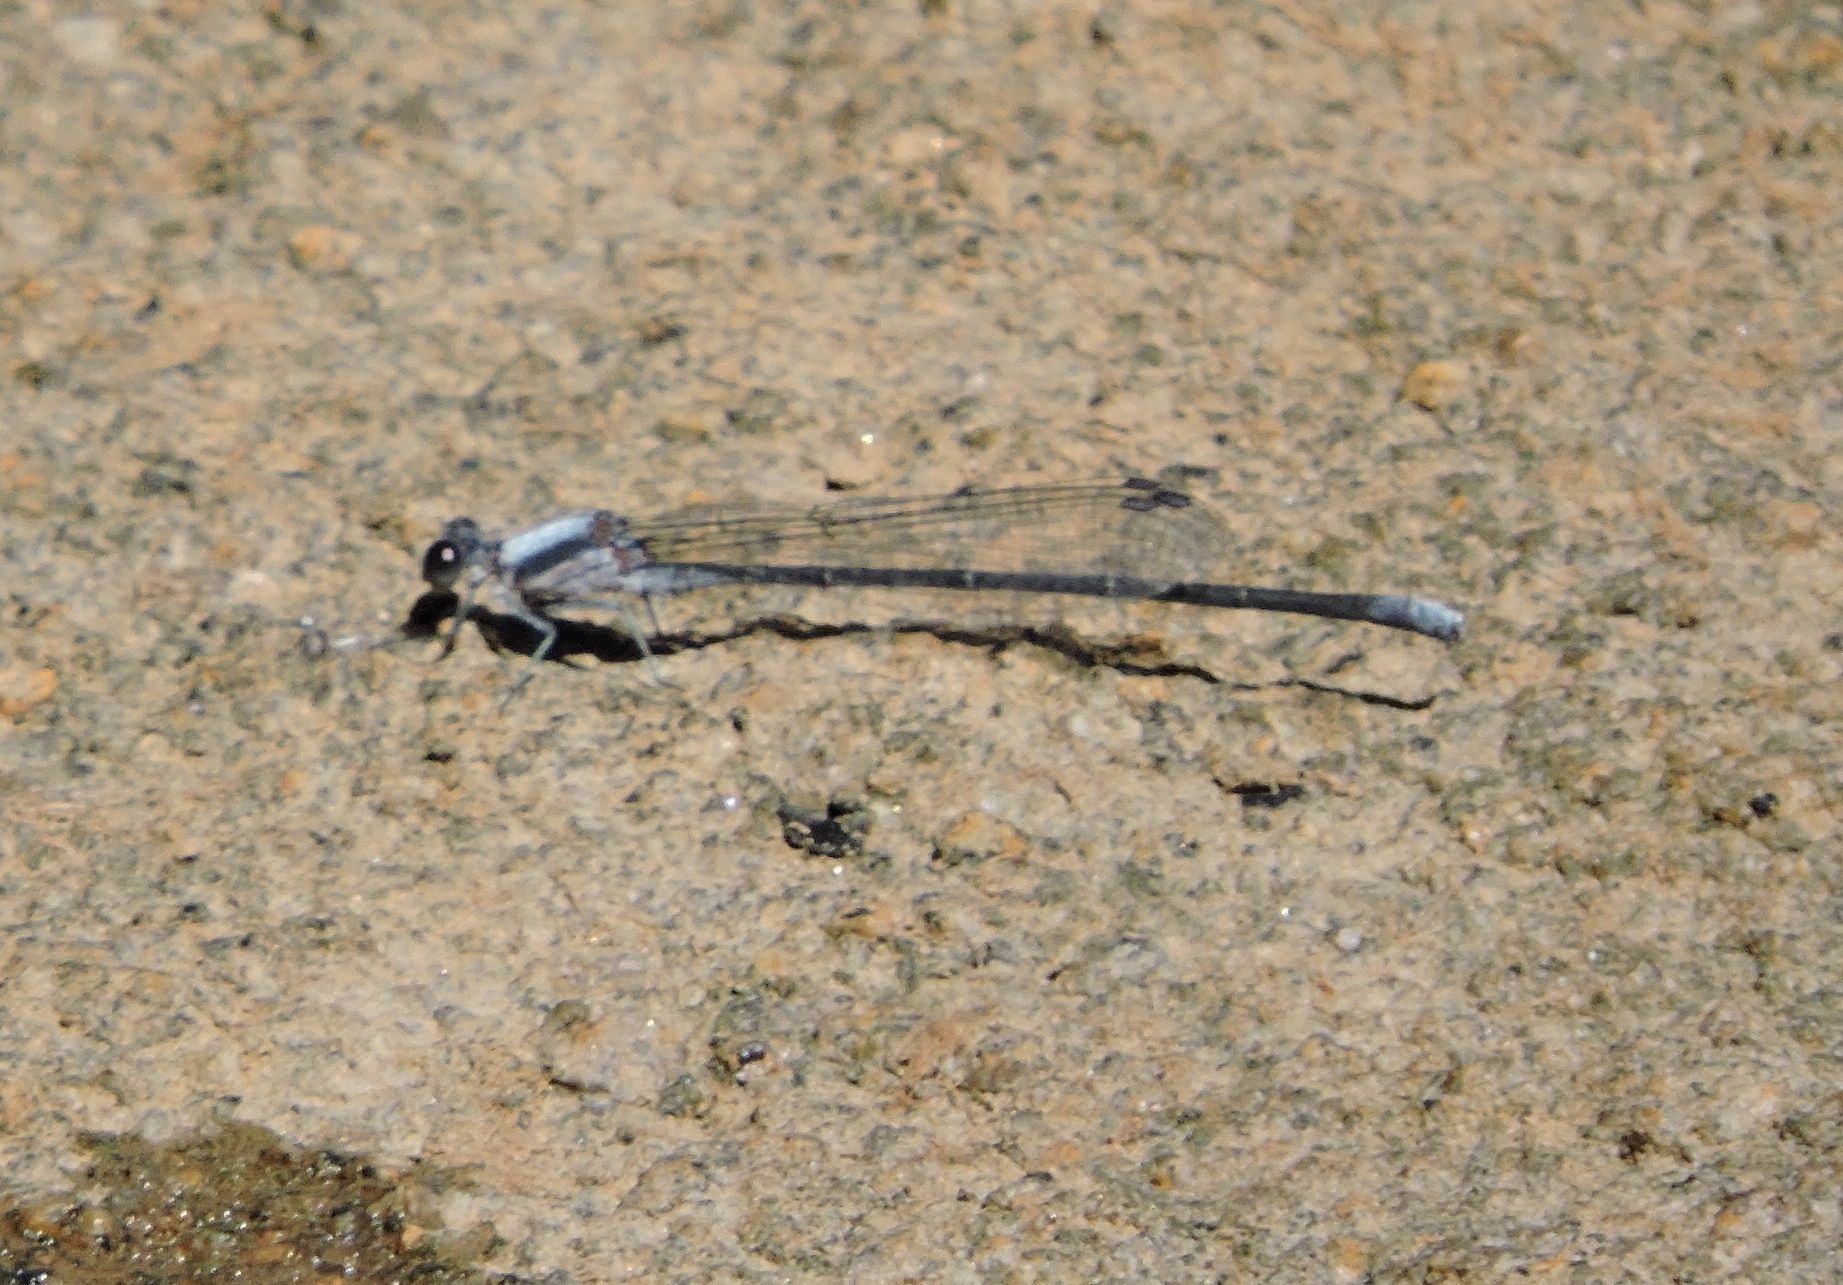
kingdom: Animalia
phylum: Arthropoda
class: Insecta
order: Odonata
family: Coenagrionidae
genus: Argia
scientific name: Argia moesta
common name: Powdered dancer
